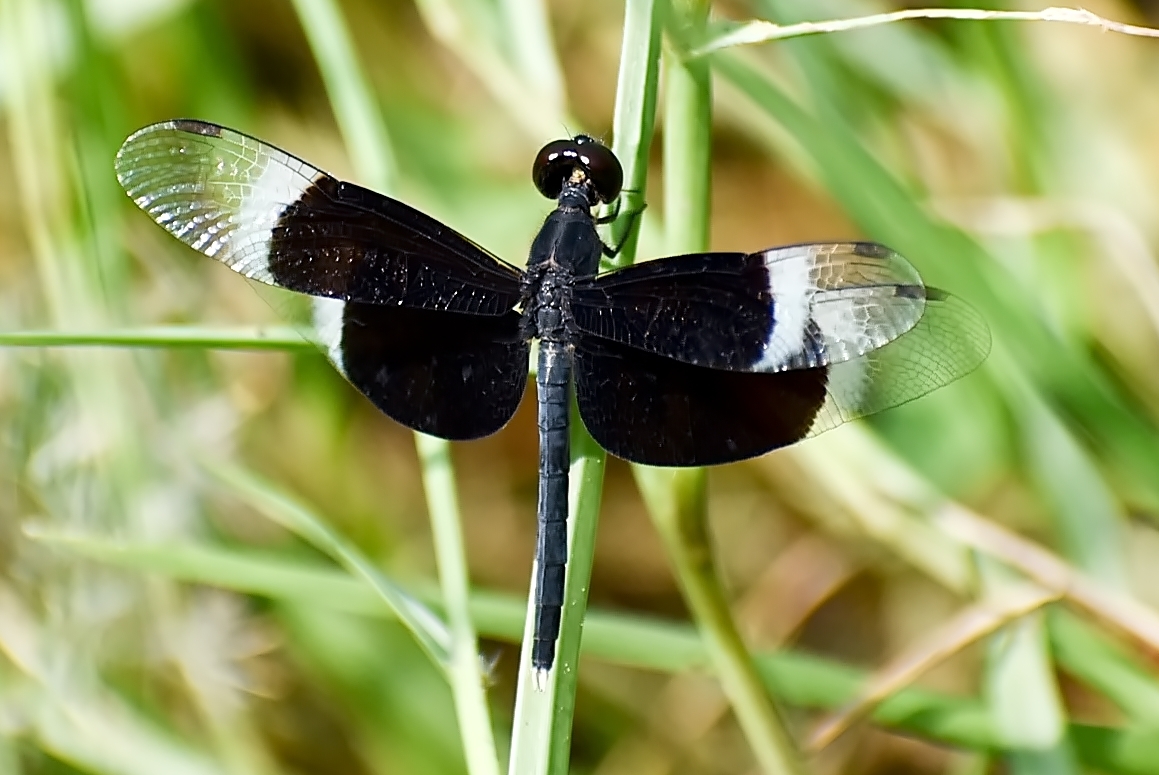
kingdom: Animalia
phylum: Arthropoda
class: Insecta
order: Odonata
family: Libellulidae
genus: Neurothemis
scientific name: Neurothemis tullia
